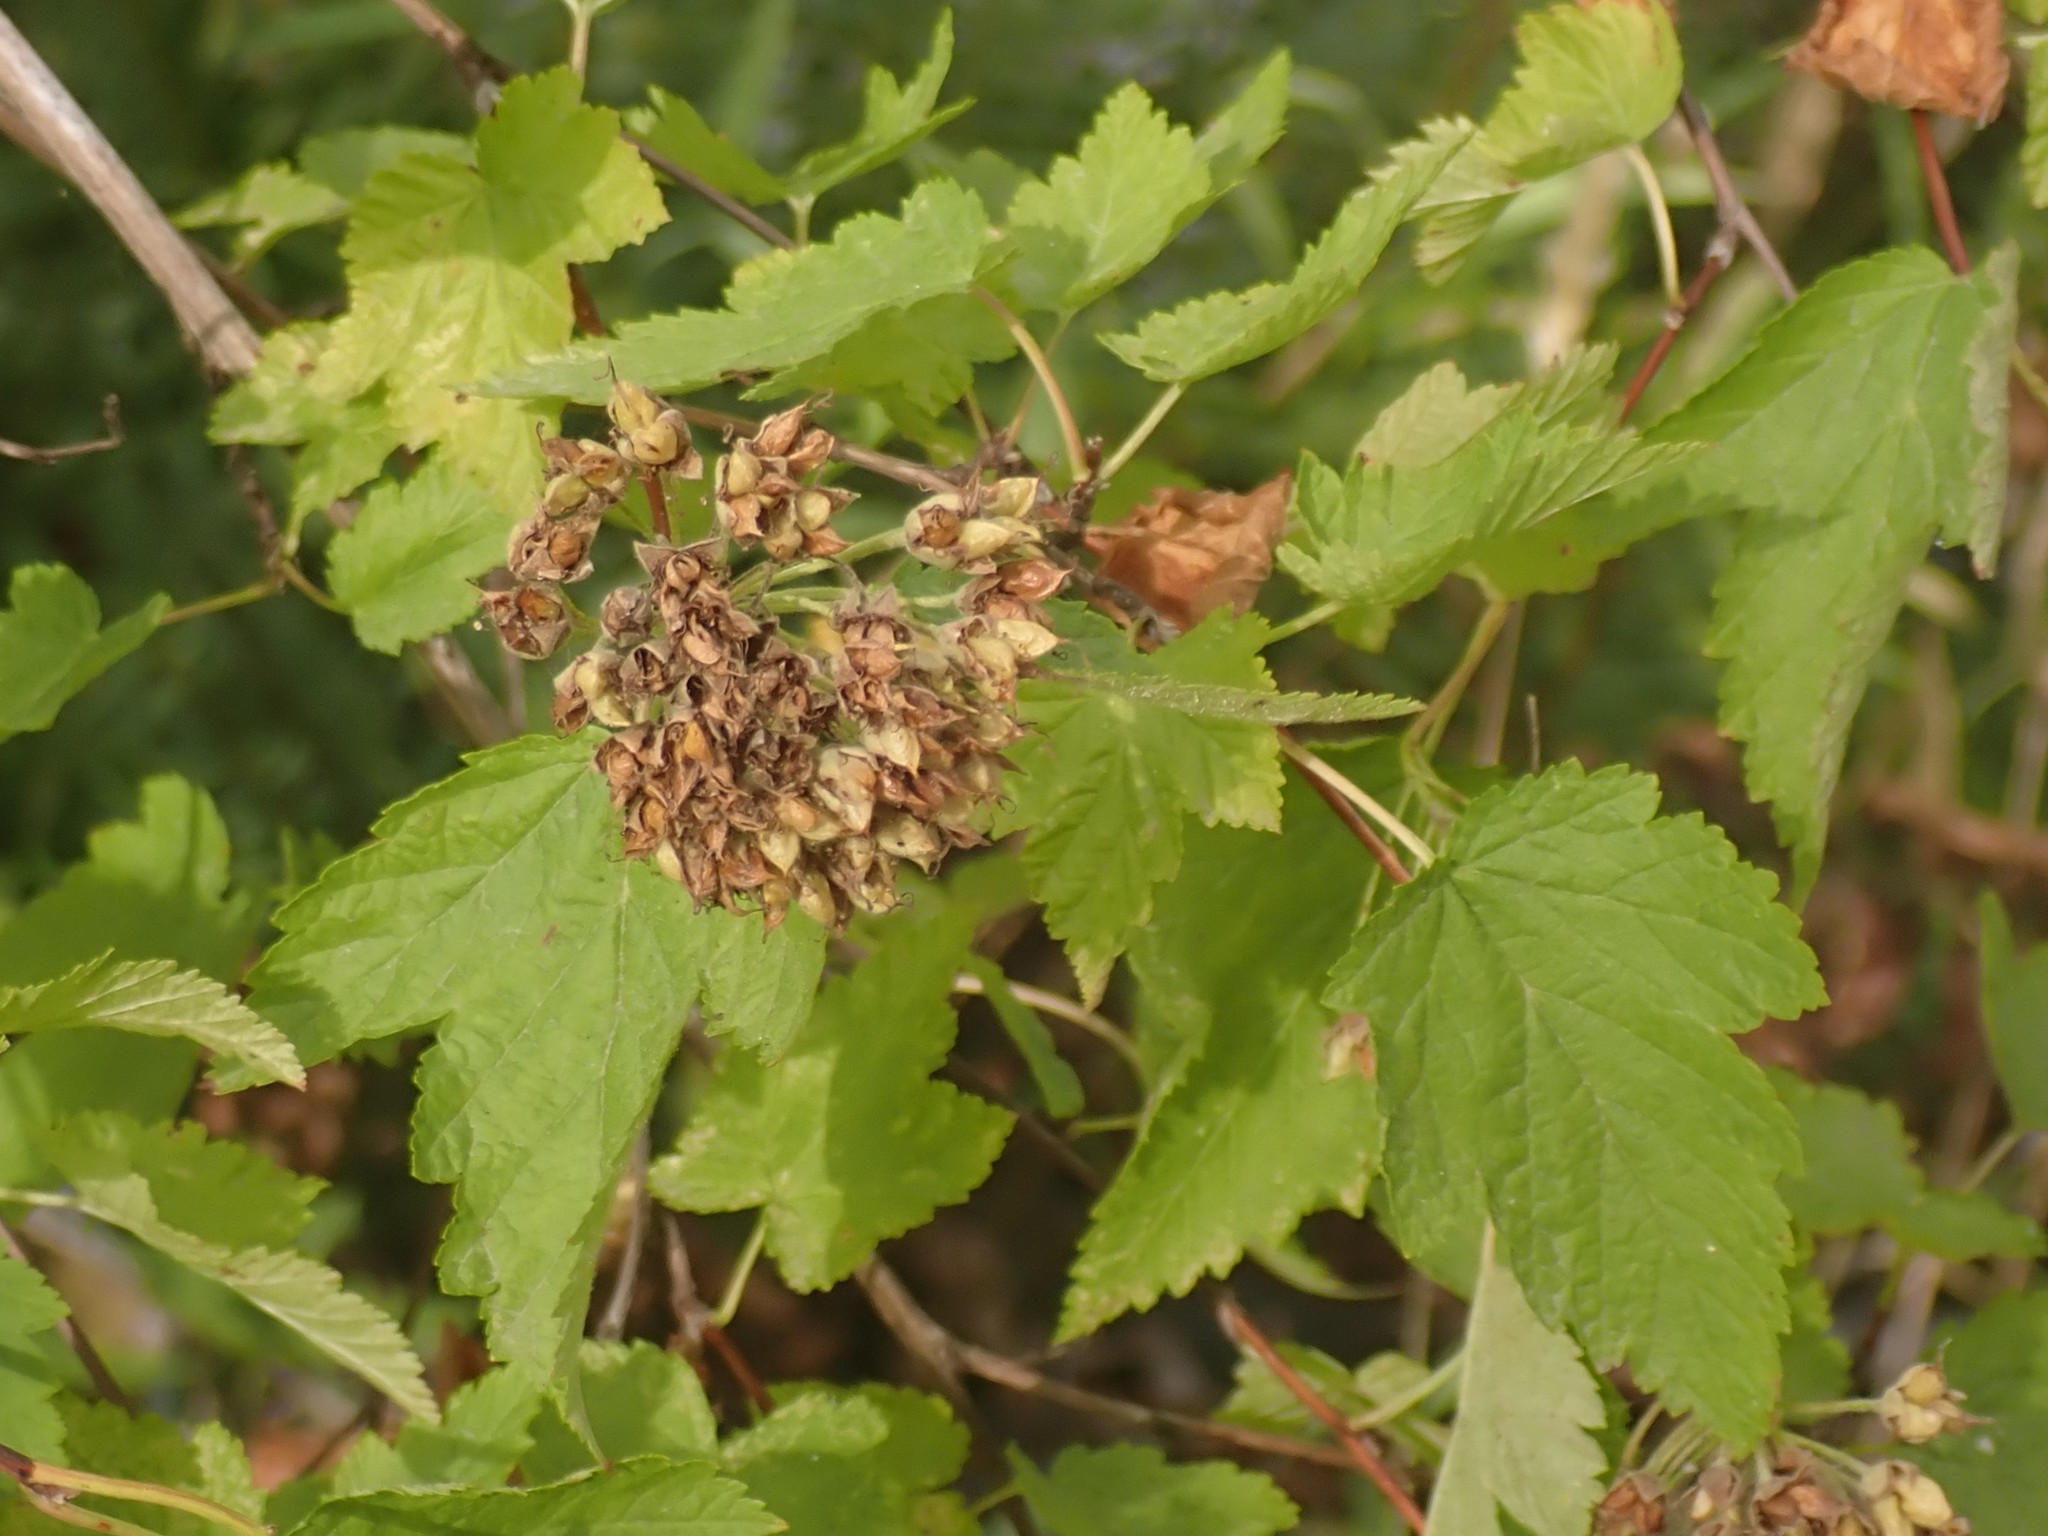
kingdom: Plantae
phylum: Tracheophyta
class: Magnoliopsida
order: Rosales
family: Rosaceae
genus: Physocarpus
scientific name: Physocarpus capitatus
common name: Pacific ninebark
